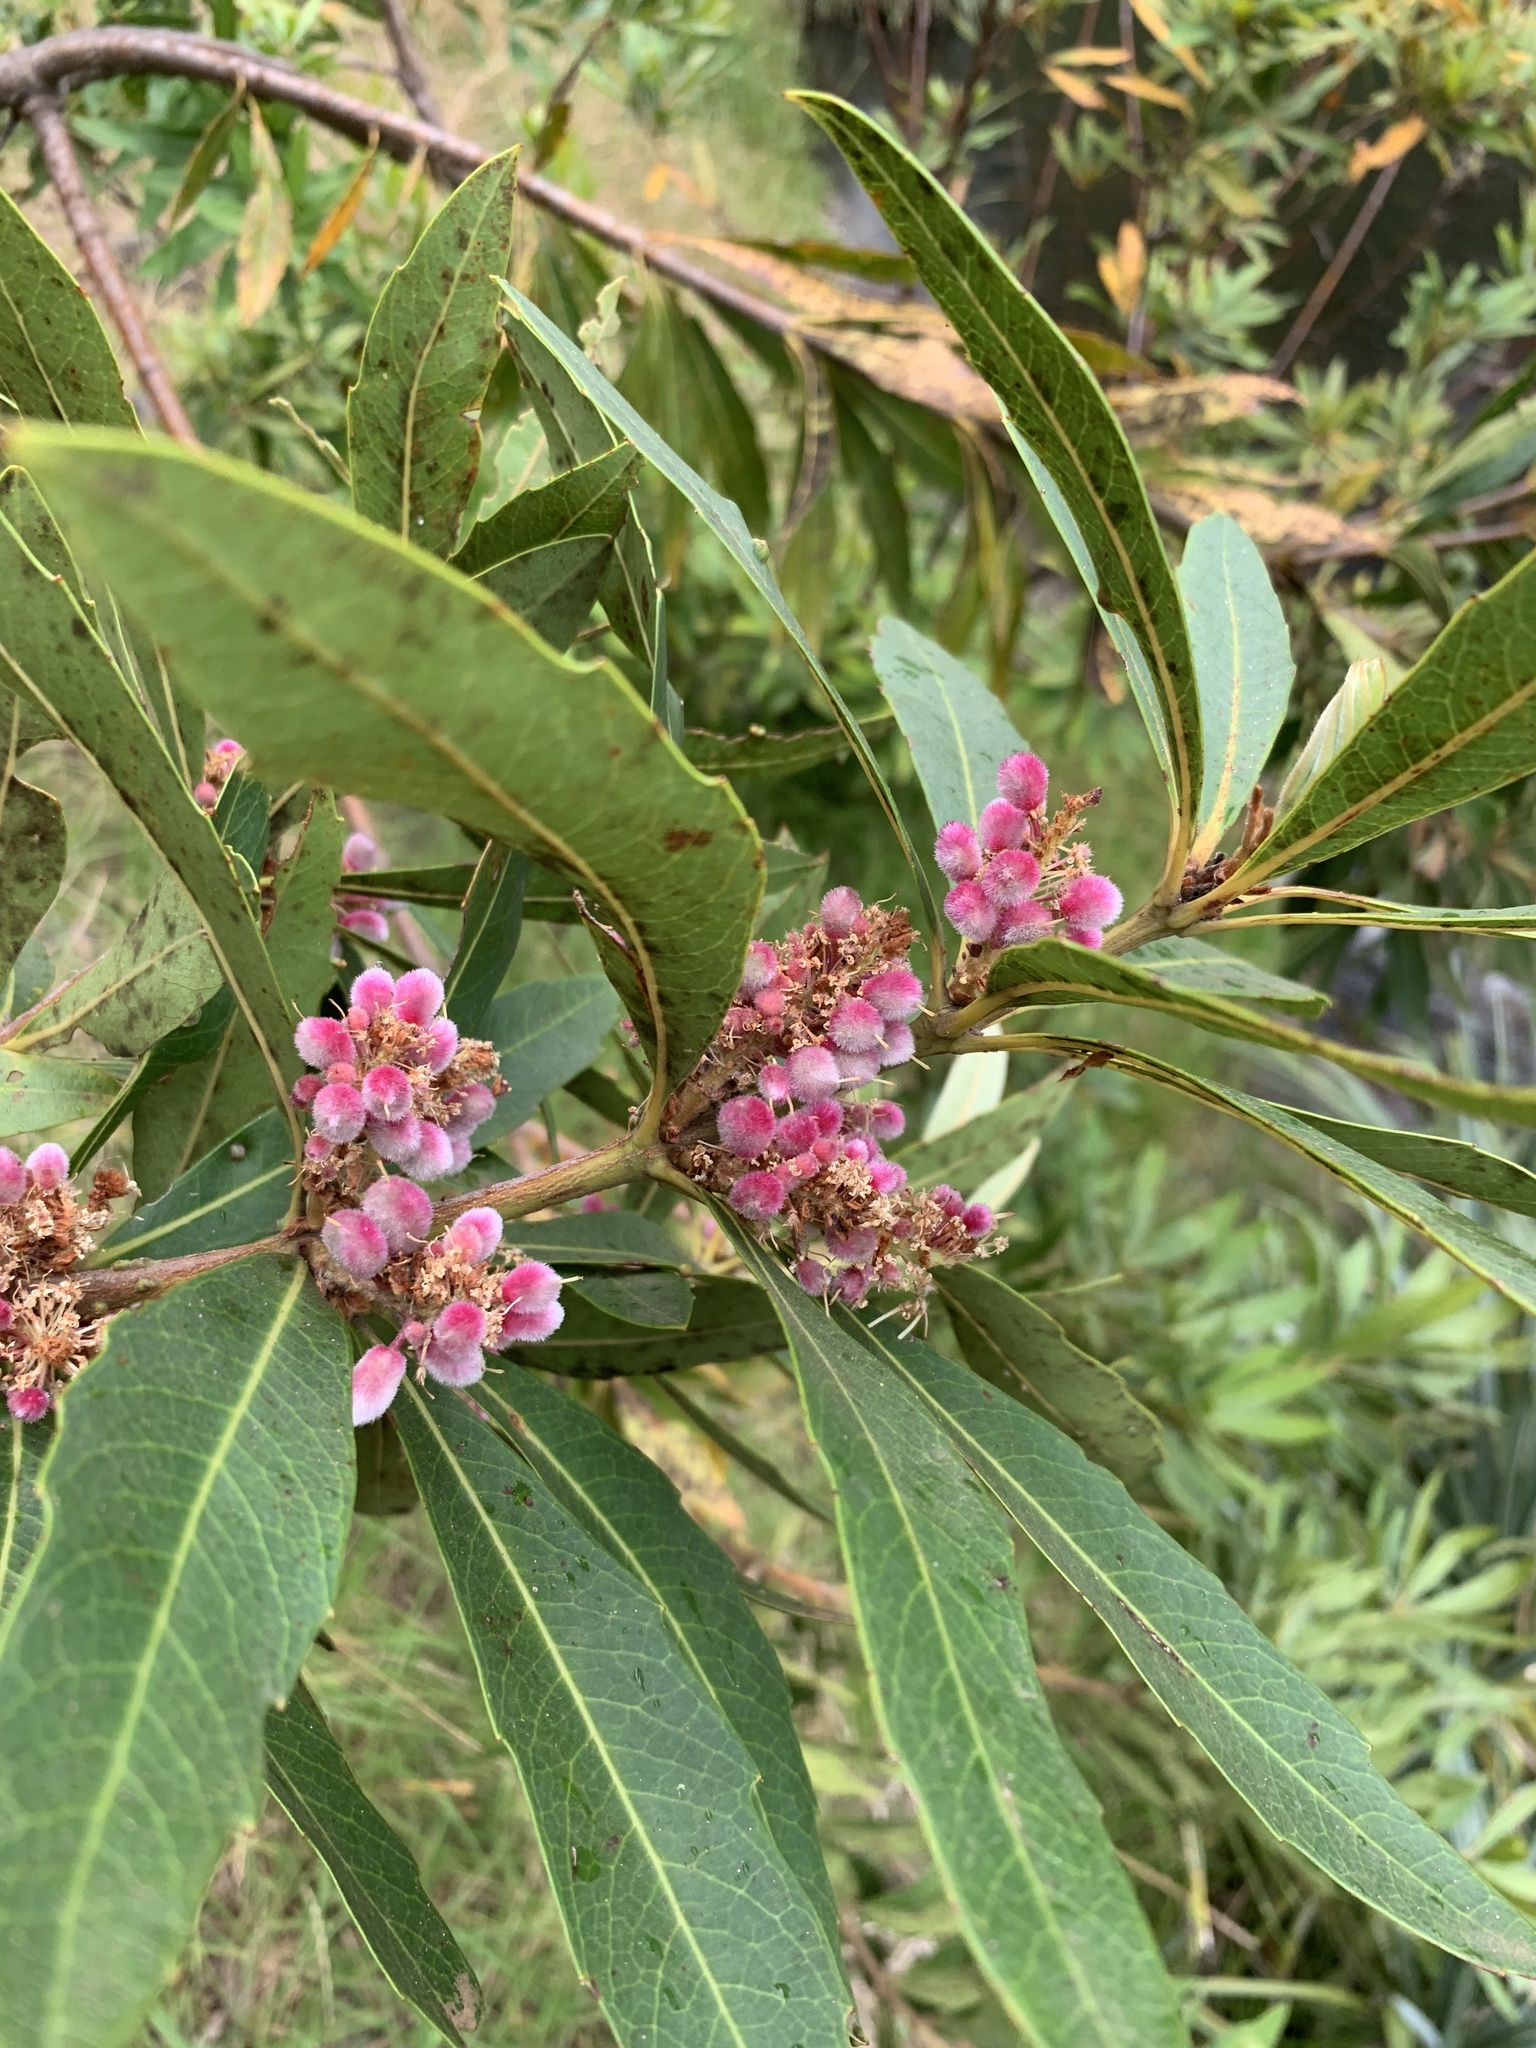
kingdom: Plantae
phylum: Tracheophyta
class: Magnoliopsida
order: Proteales
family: Proteaceae
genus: Brabejum
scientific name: Brabejum stellatifolium
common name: Wild almond
